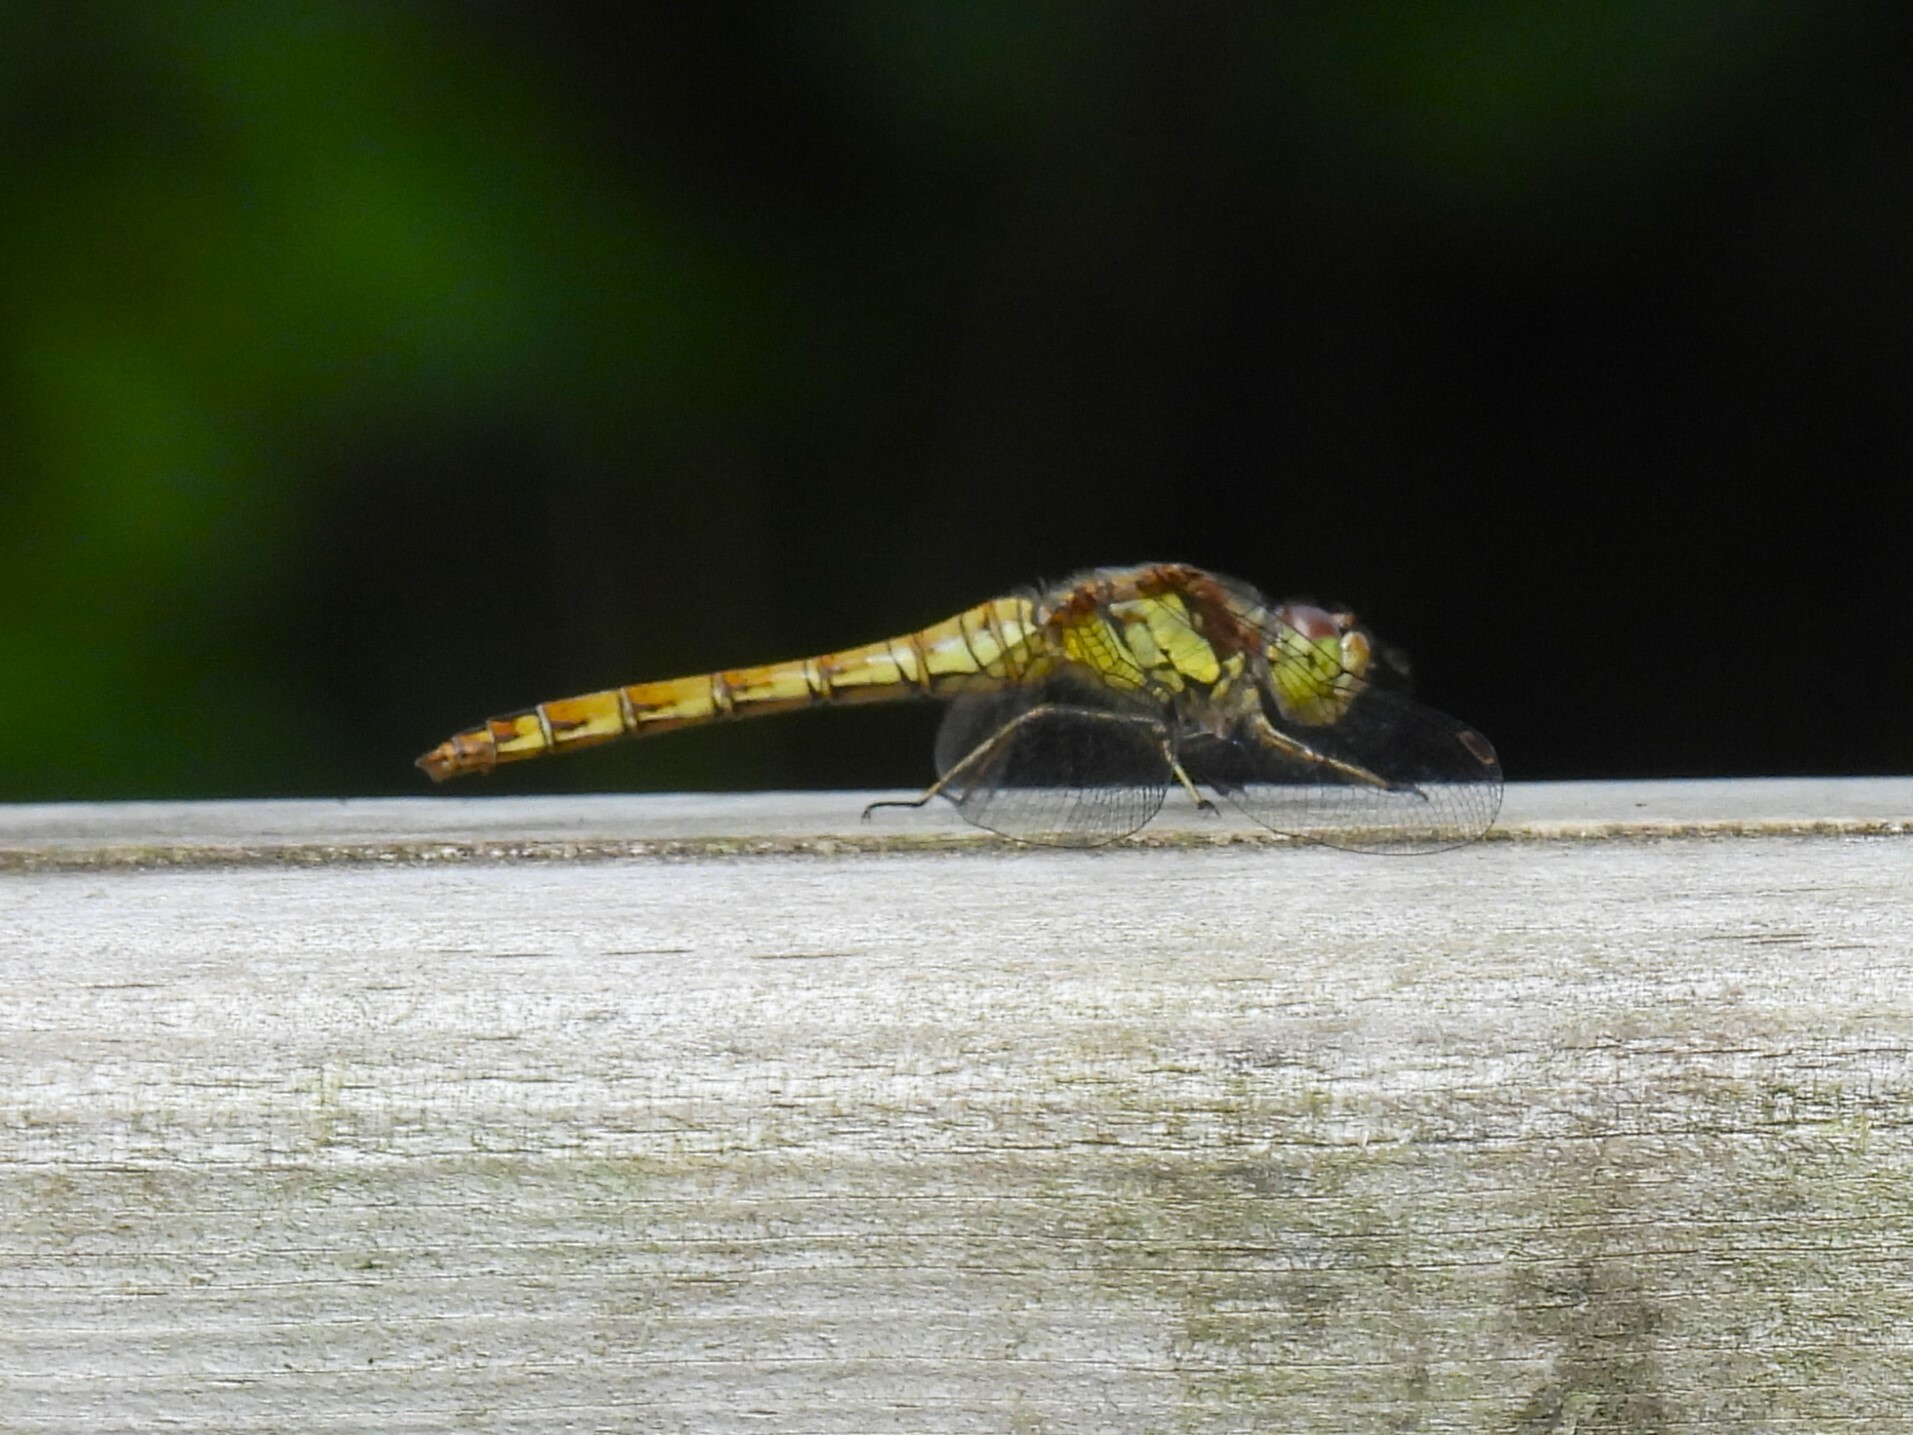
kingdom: Animalia
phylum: Arthropoda
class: Insecta
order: Odonata
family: Libellulidae
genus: Sympetrum
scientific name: Sympetrum striolatum
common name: Common darter
